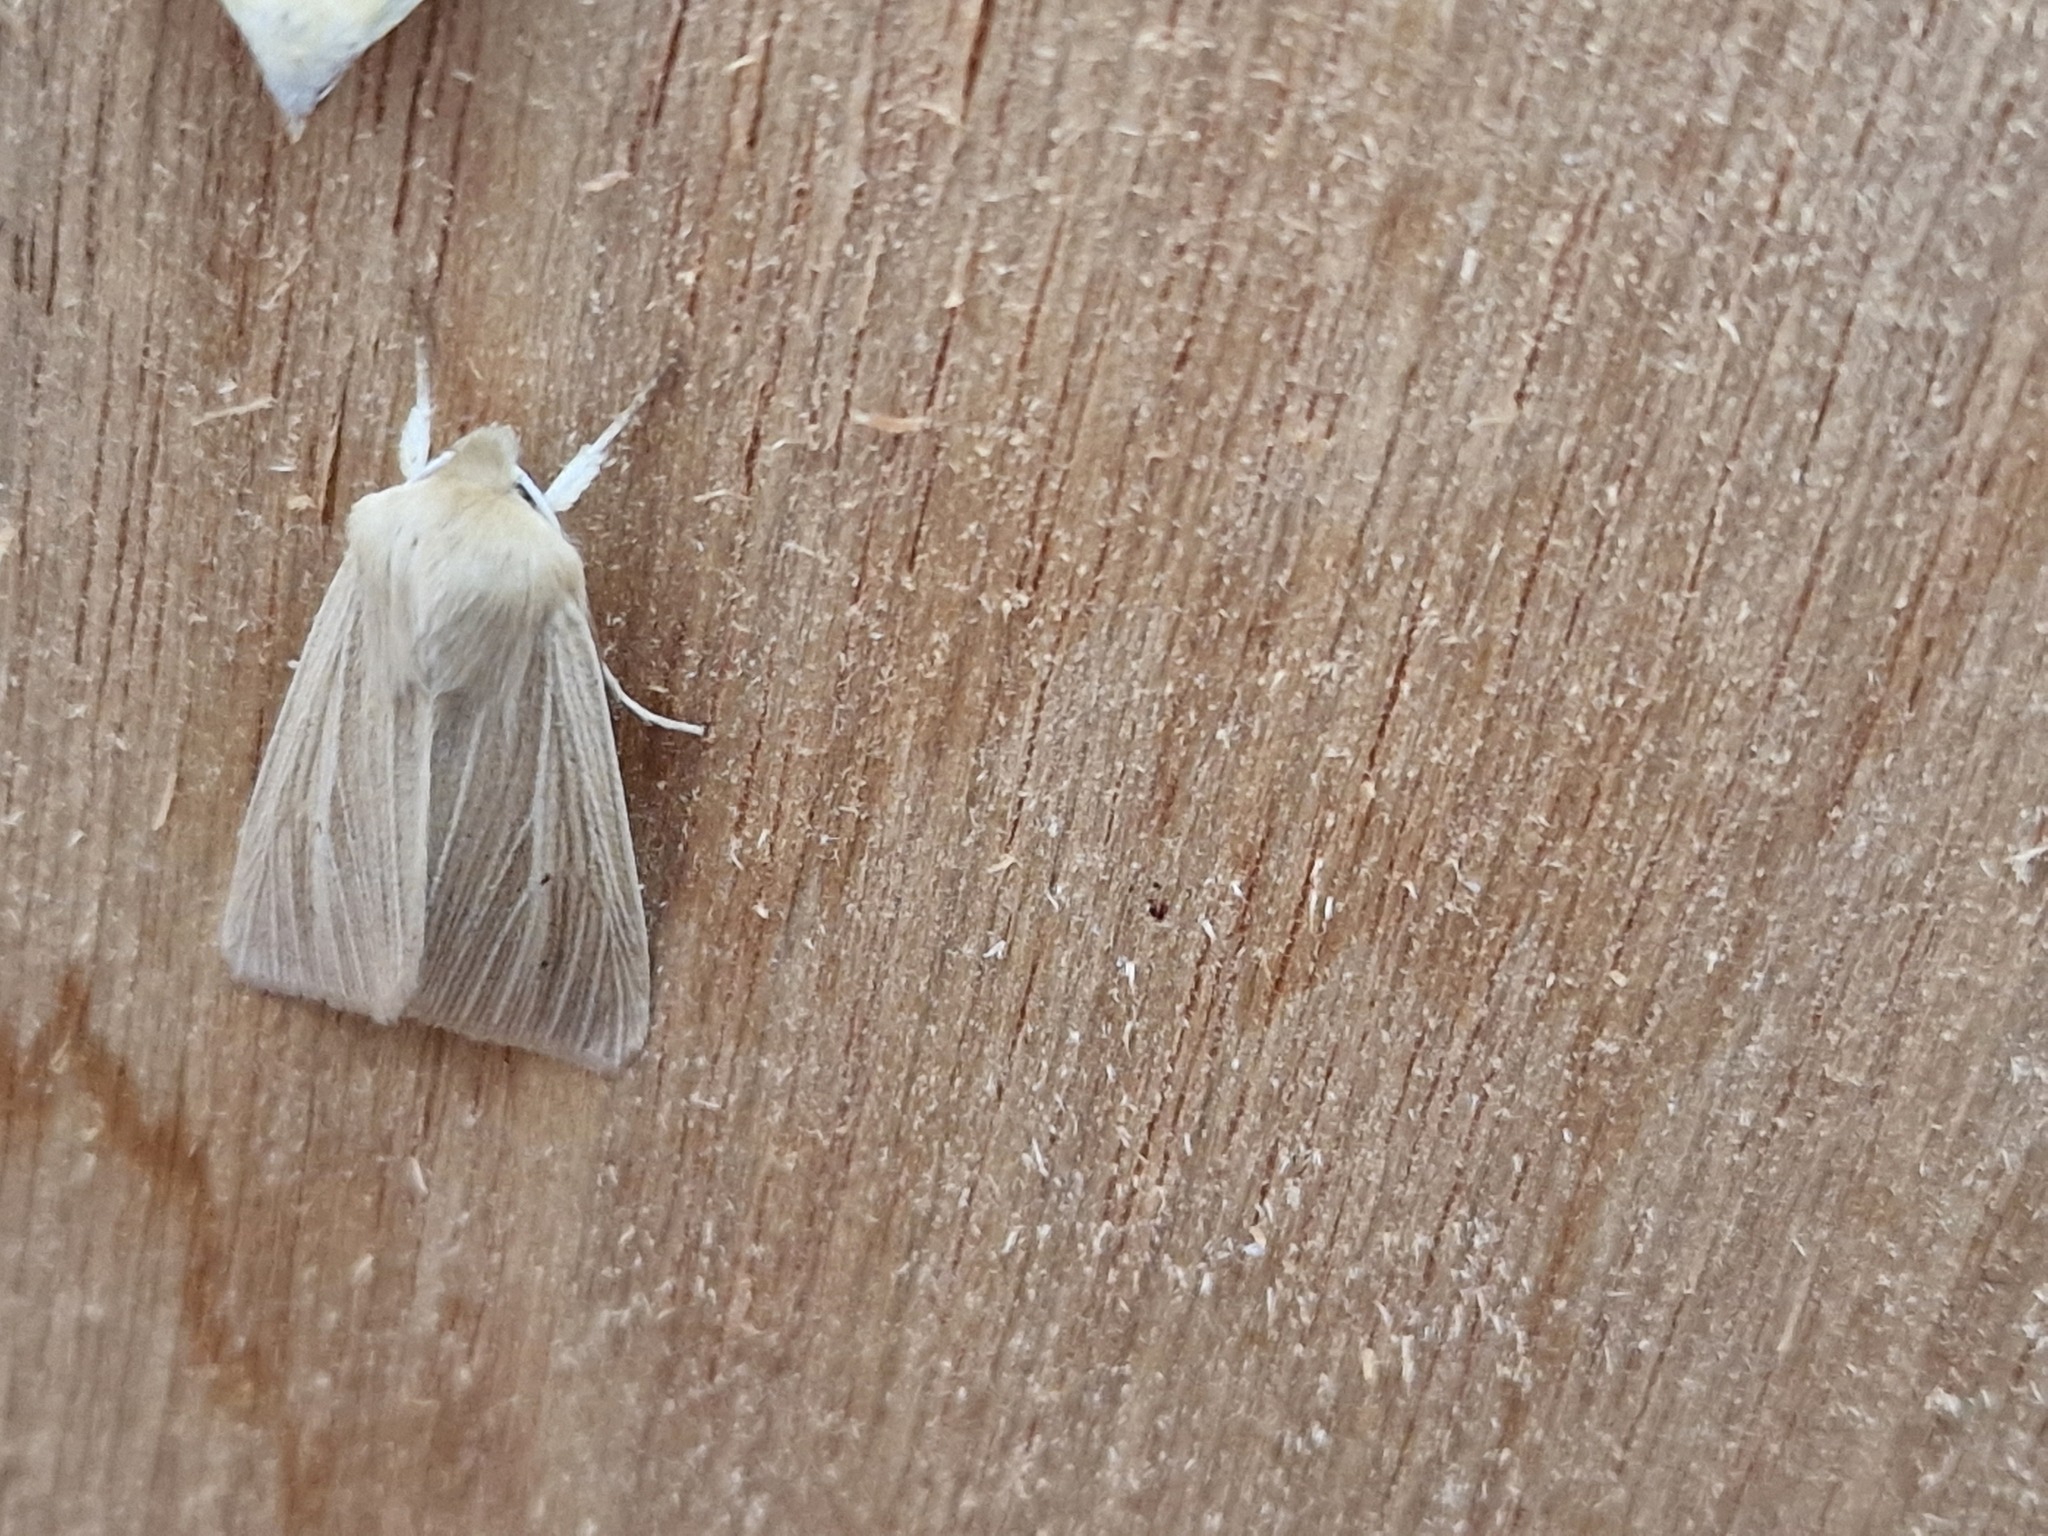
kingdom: Animalia
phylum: Arthropoda
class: Insecta
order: Lepidoptera
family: Noctuidae
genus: Mythimna
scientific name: Mythimna pallens
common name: Common wainscot
